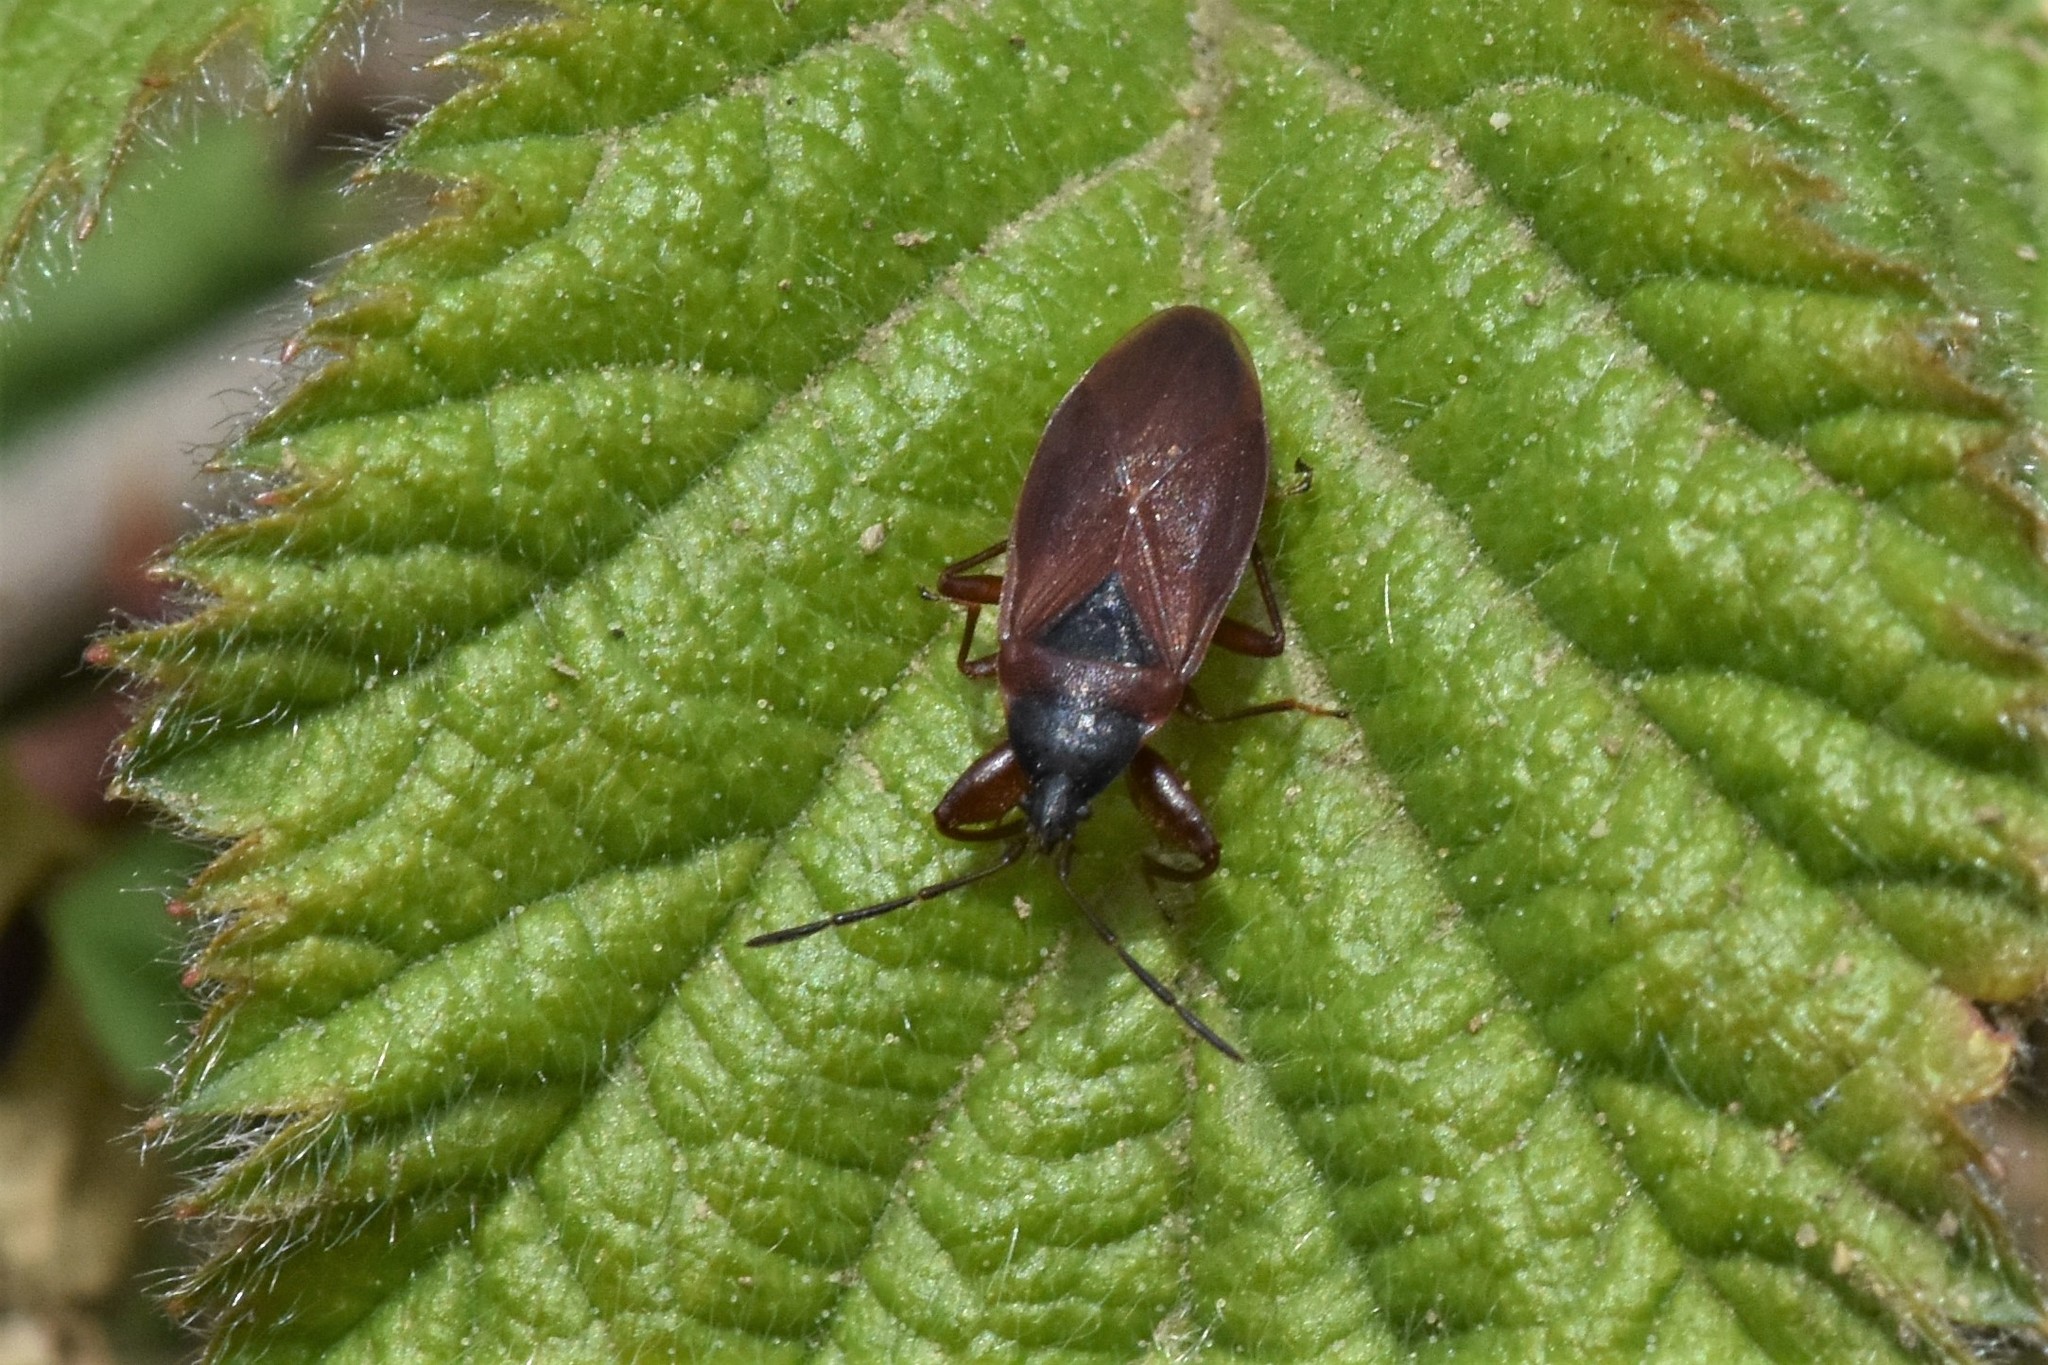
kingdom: Animalia
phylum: Arthropoda
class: Insecta
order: Hemiptera
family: Rhyparochromidae
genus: Gastrodes
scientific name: Gastrodes pacificus
